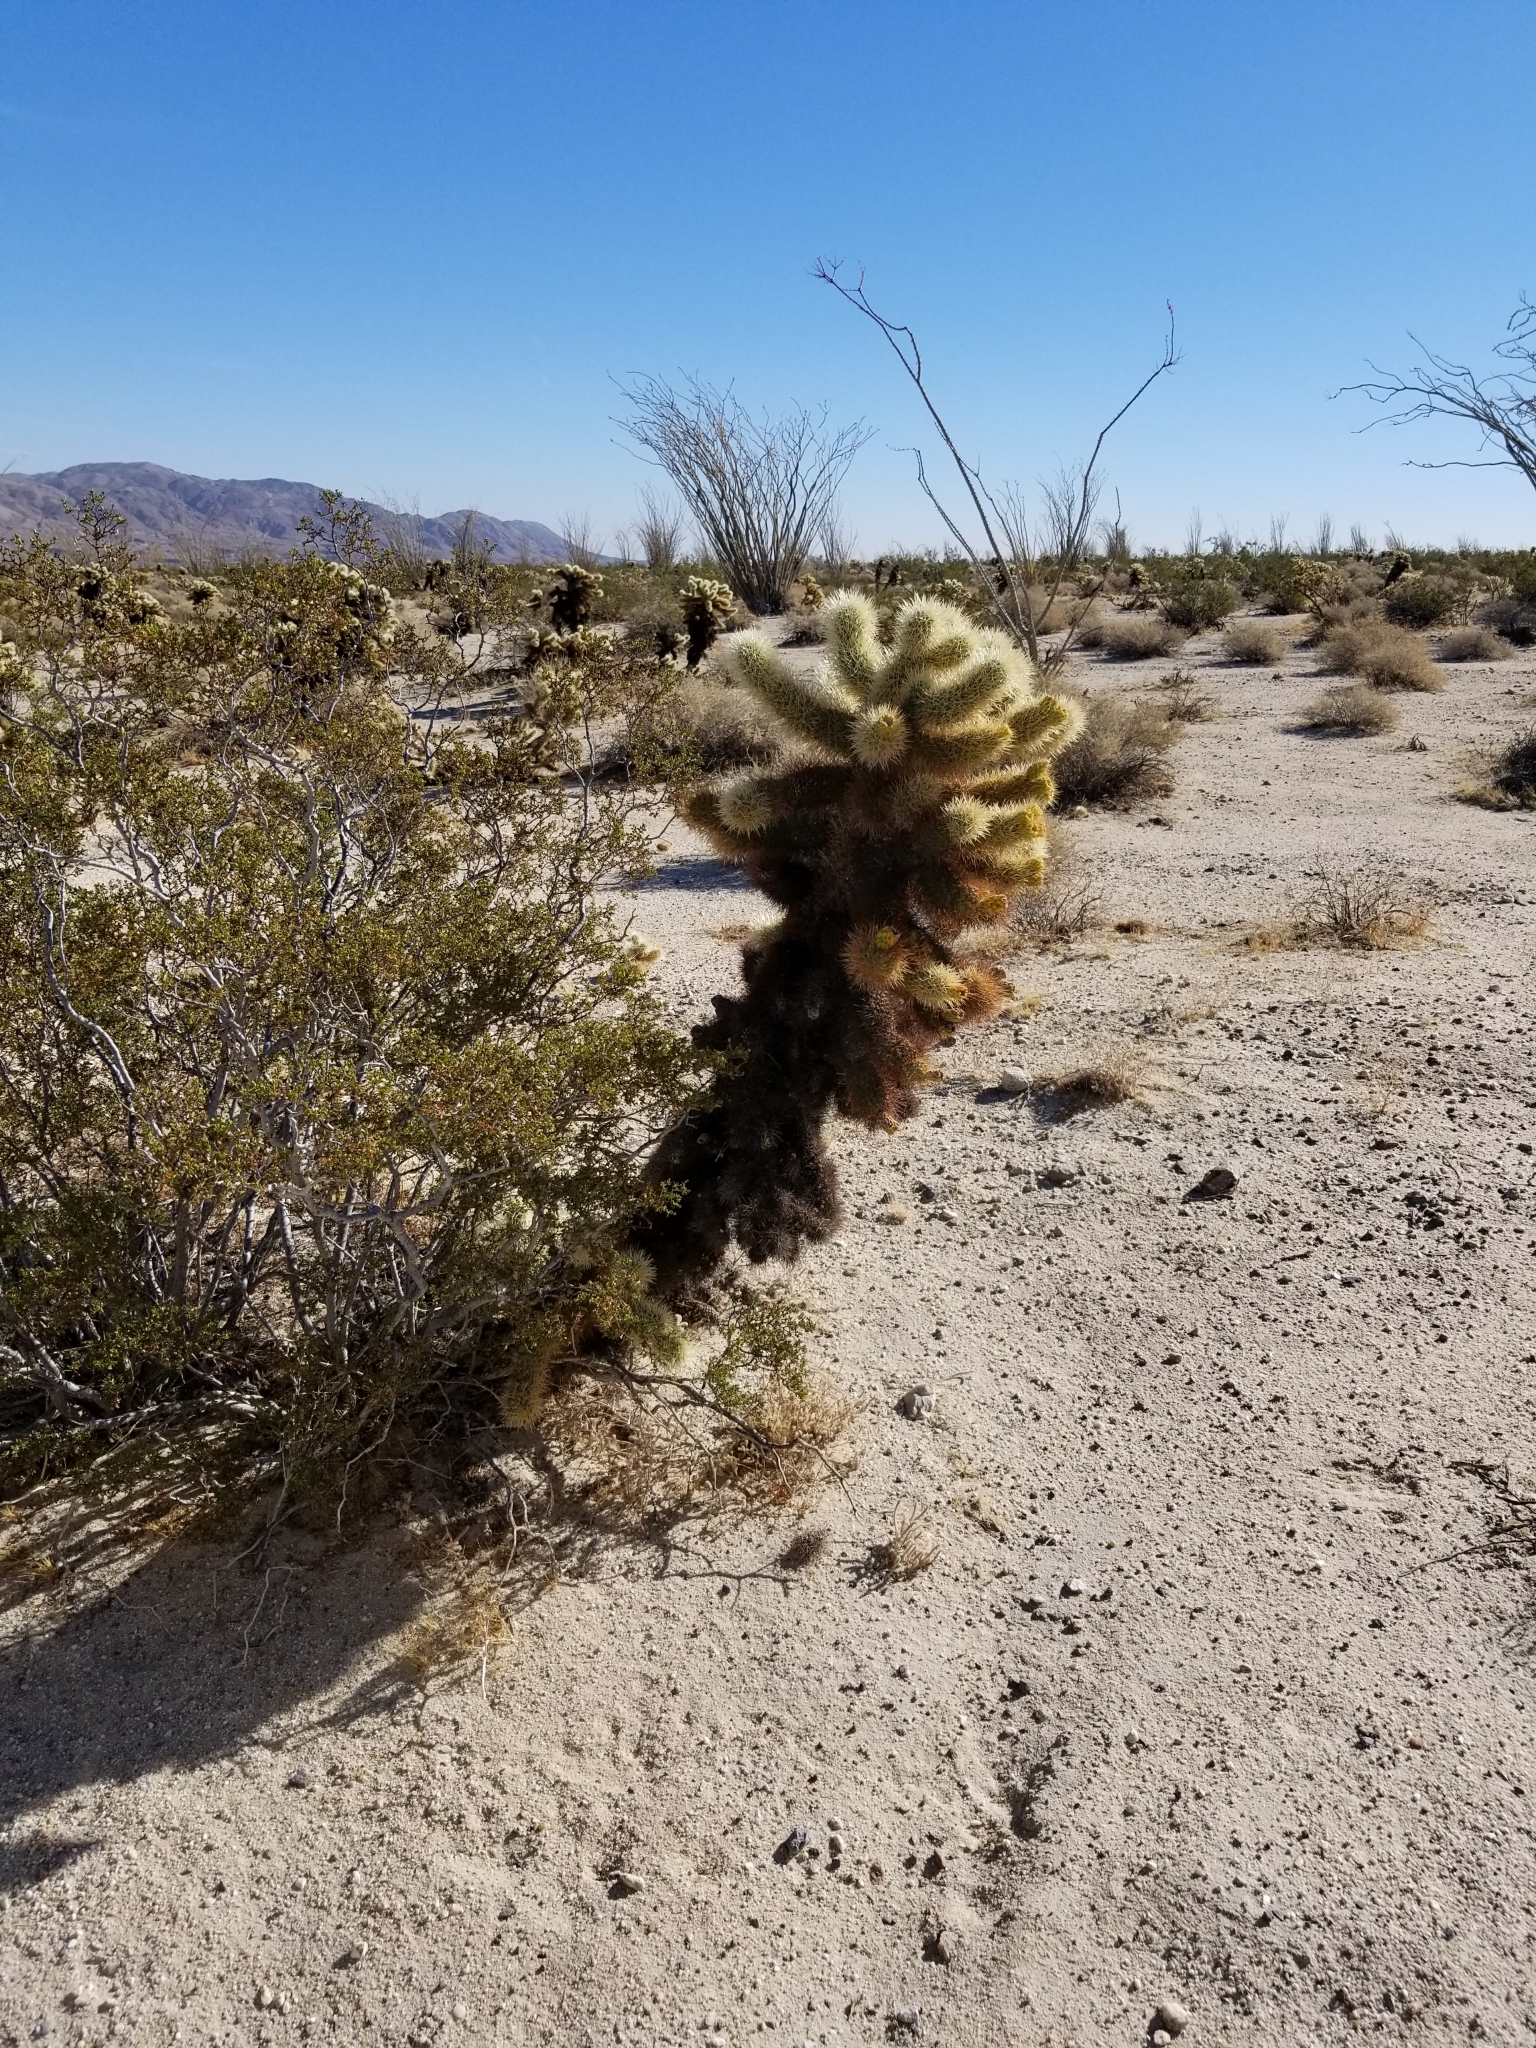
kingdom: Plantae
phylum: Tracheophyta
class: Magnoliopsida
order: Caryophyllales
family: Cactaceae
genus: Cylindropuntia
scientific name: Cylindropuntia fosbergii
